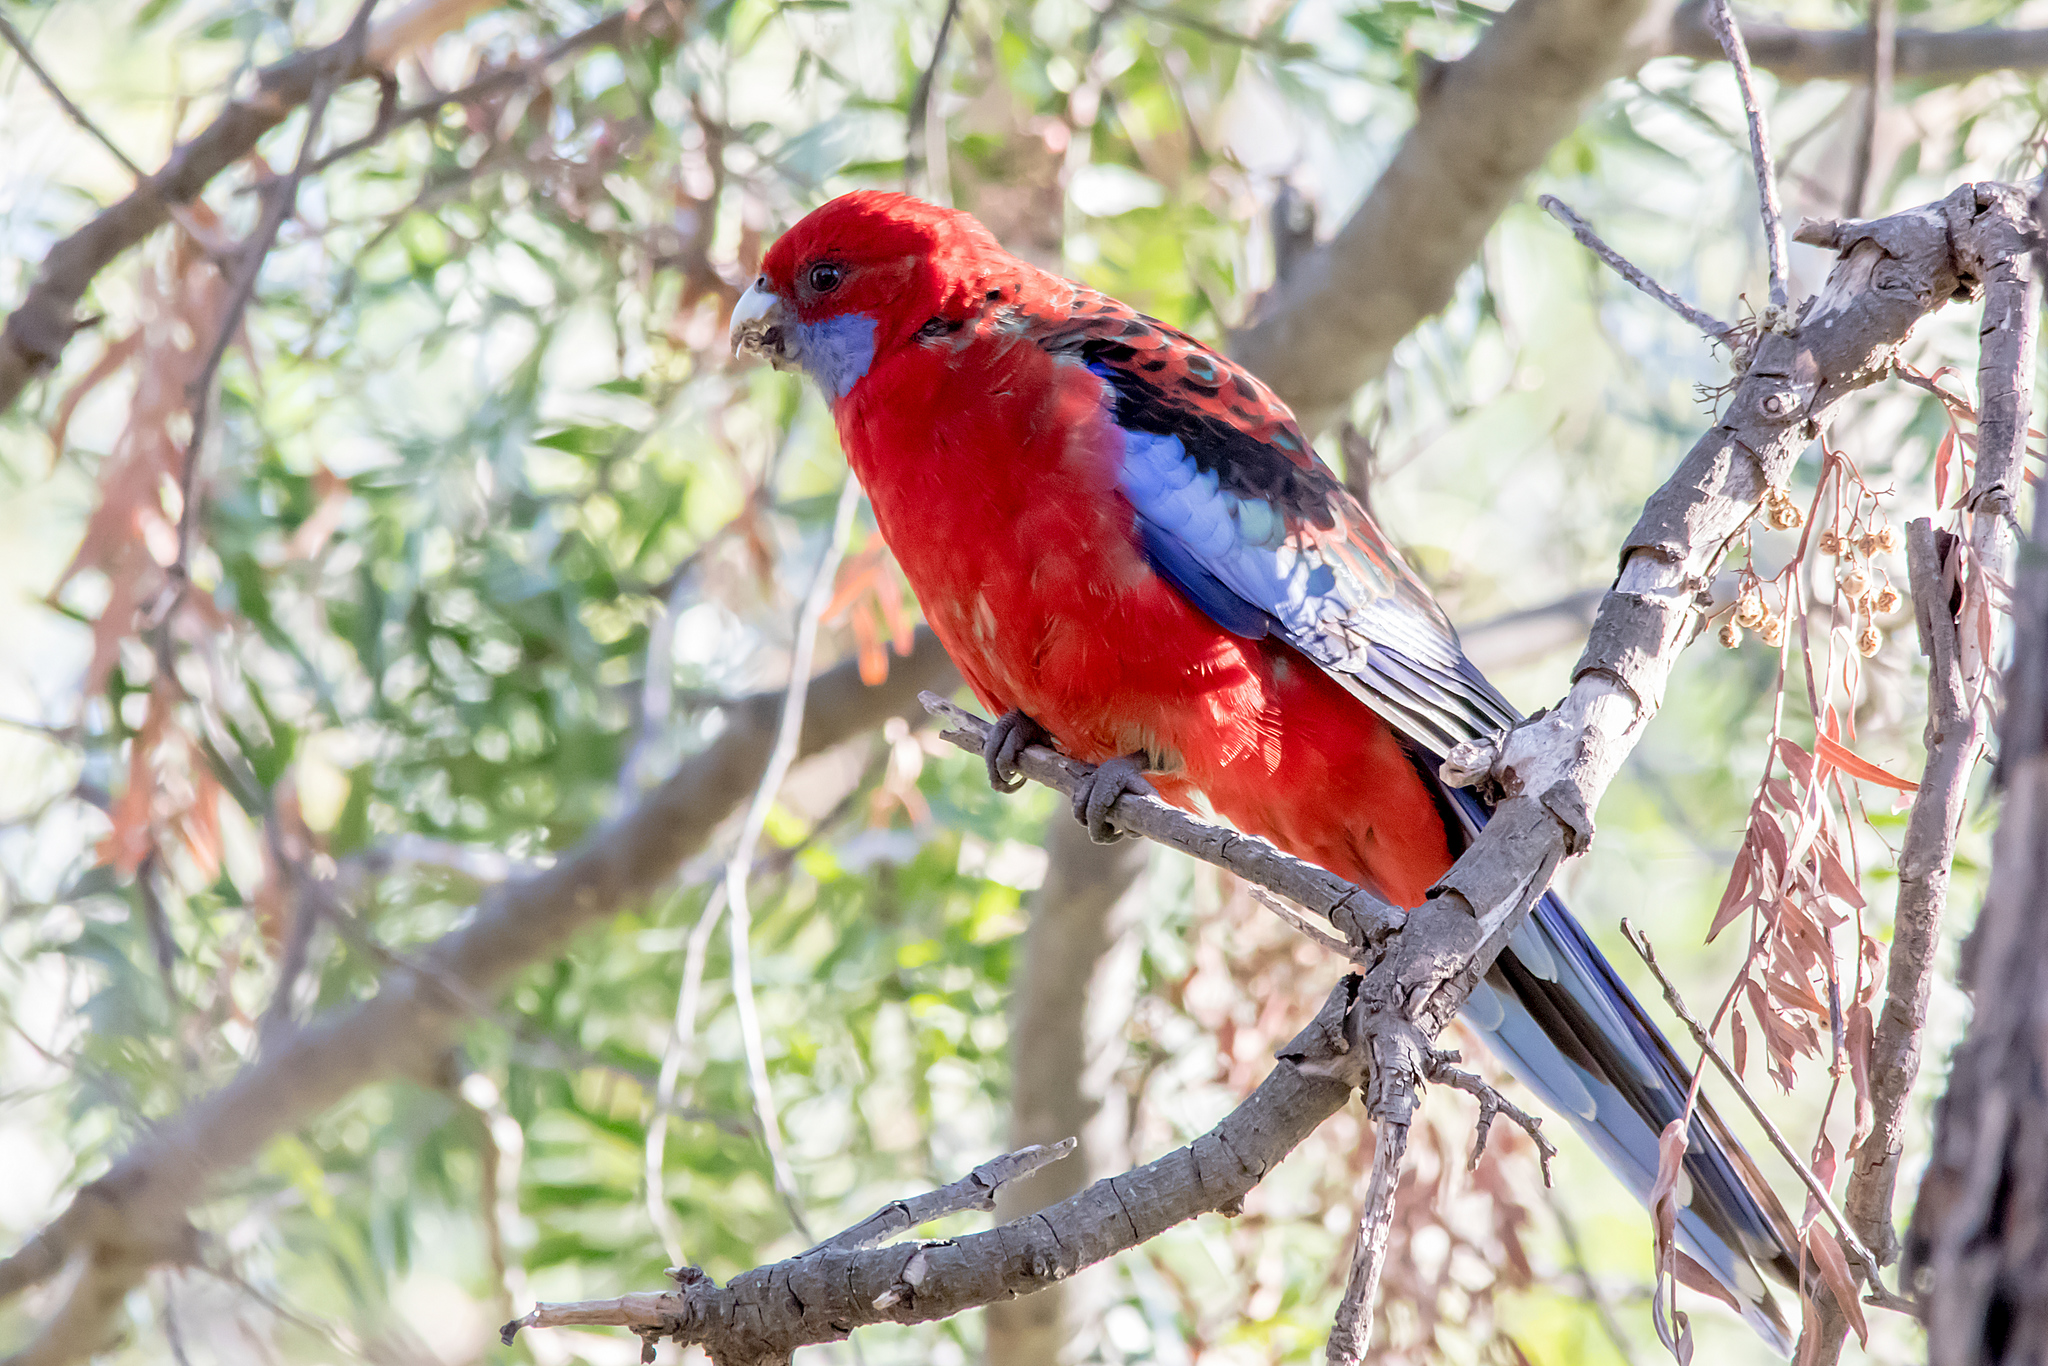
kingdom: Animalia
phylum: Chordata
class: Aves
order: Psittaciformes
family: Psittacidae
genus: Platycercus
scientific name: Platycercus elegans
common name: Crimson rosella
